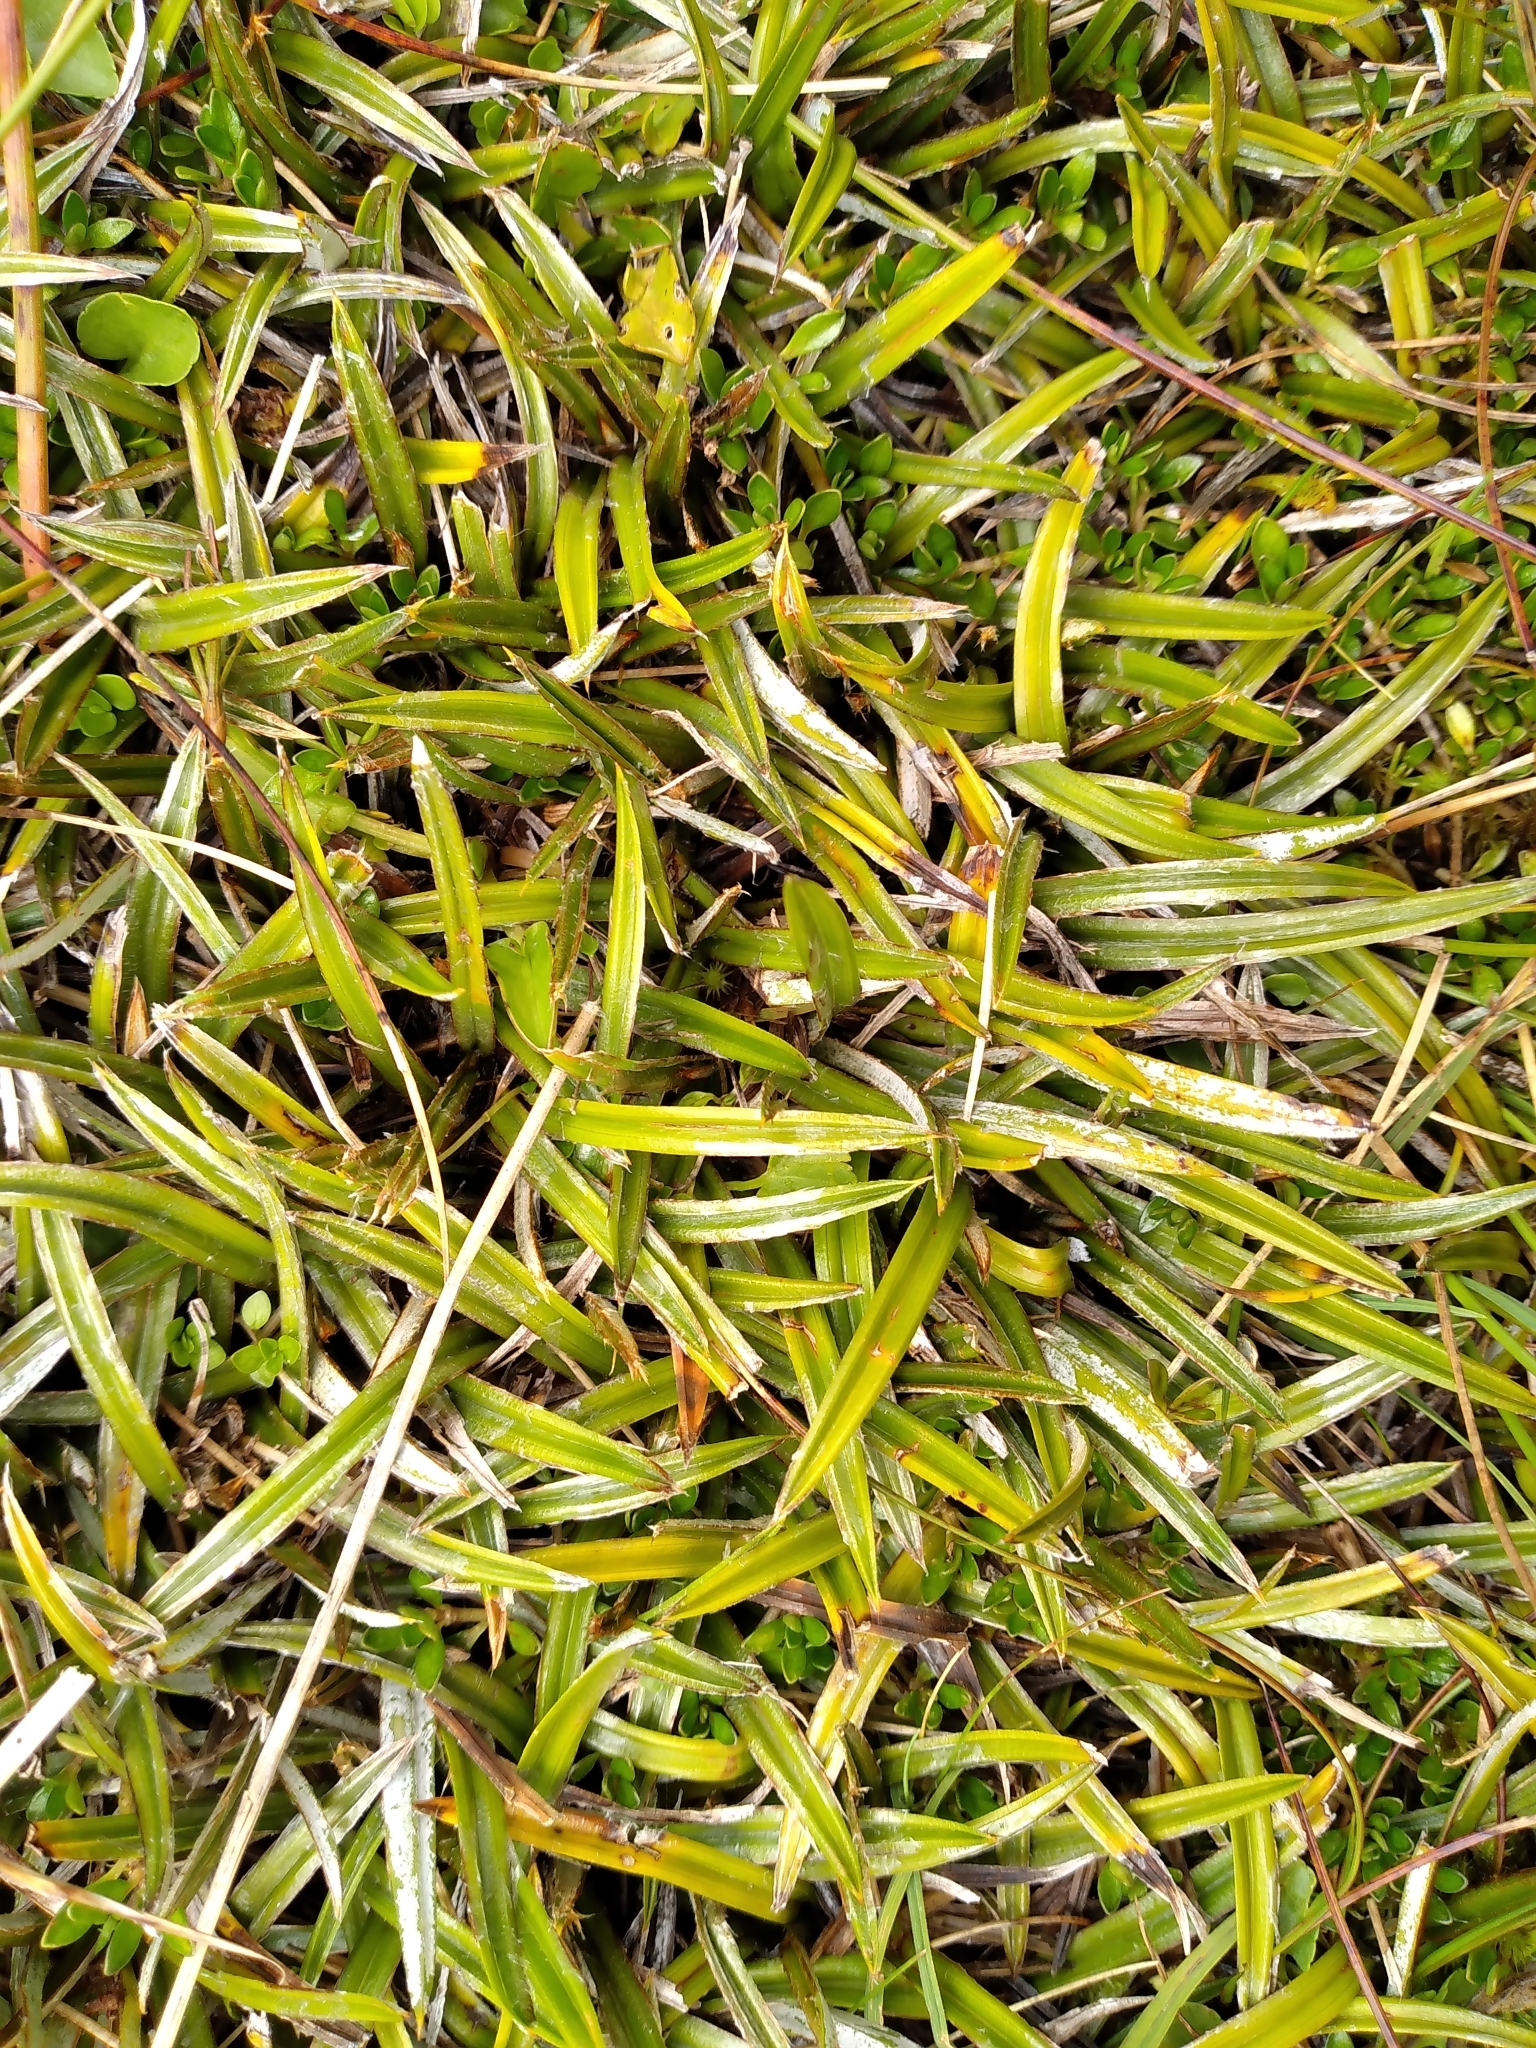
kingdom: Plantae
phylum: Tracheophyta
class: Liliopsida
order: Asparagales
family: Asteliaceae
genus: Astelia
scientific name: Astelia linearis
